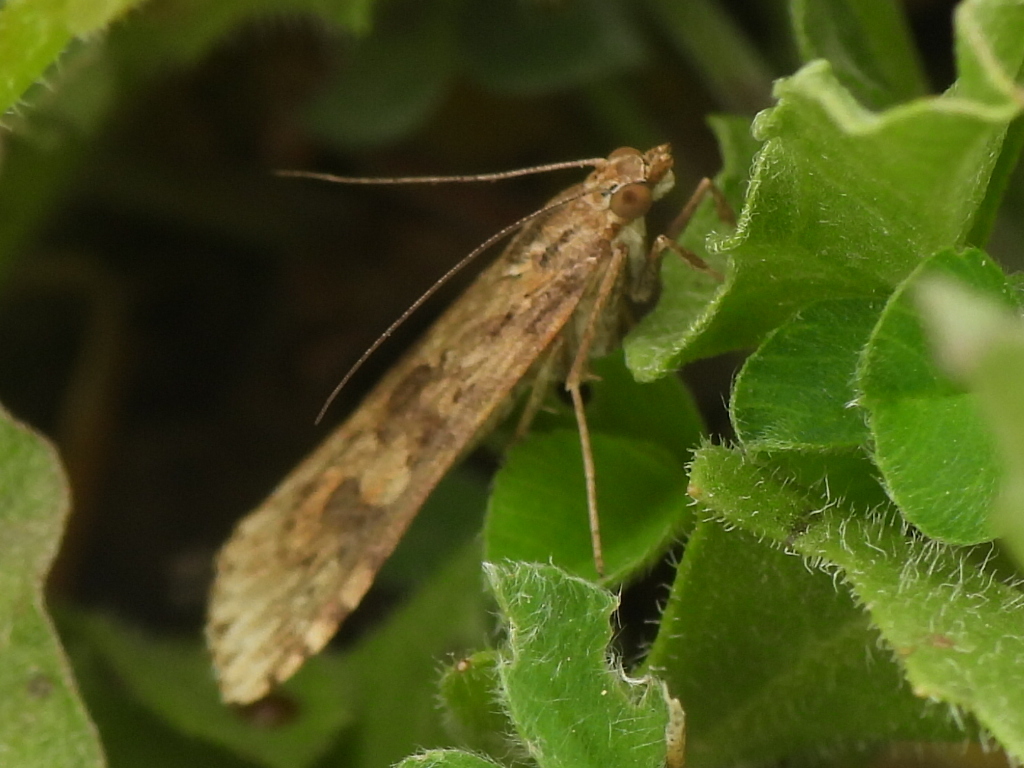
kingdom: Animalia
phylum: Arthropoda
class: Insecta
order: Lepidoptera
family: Crambidae
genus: Nomophila
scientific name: Nomophila nearctica
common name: American rush veneer
